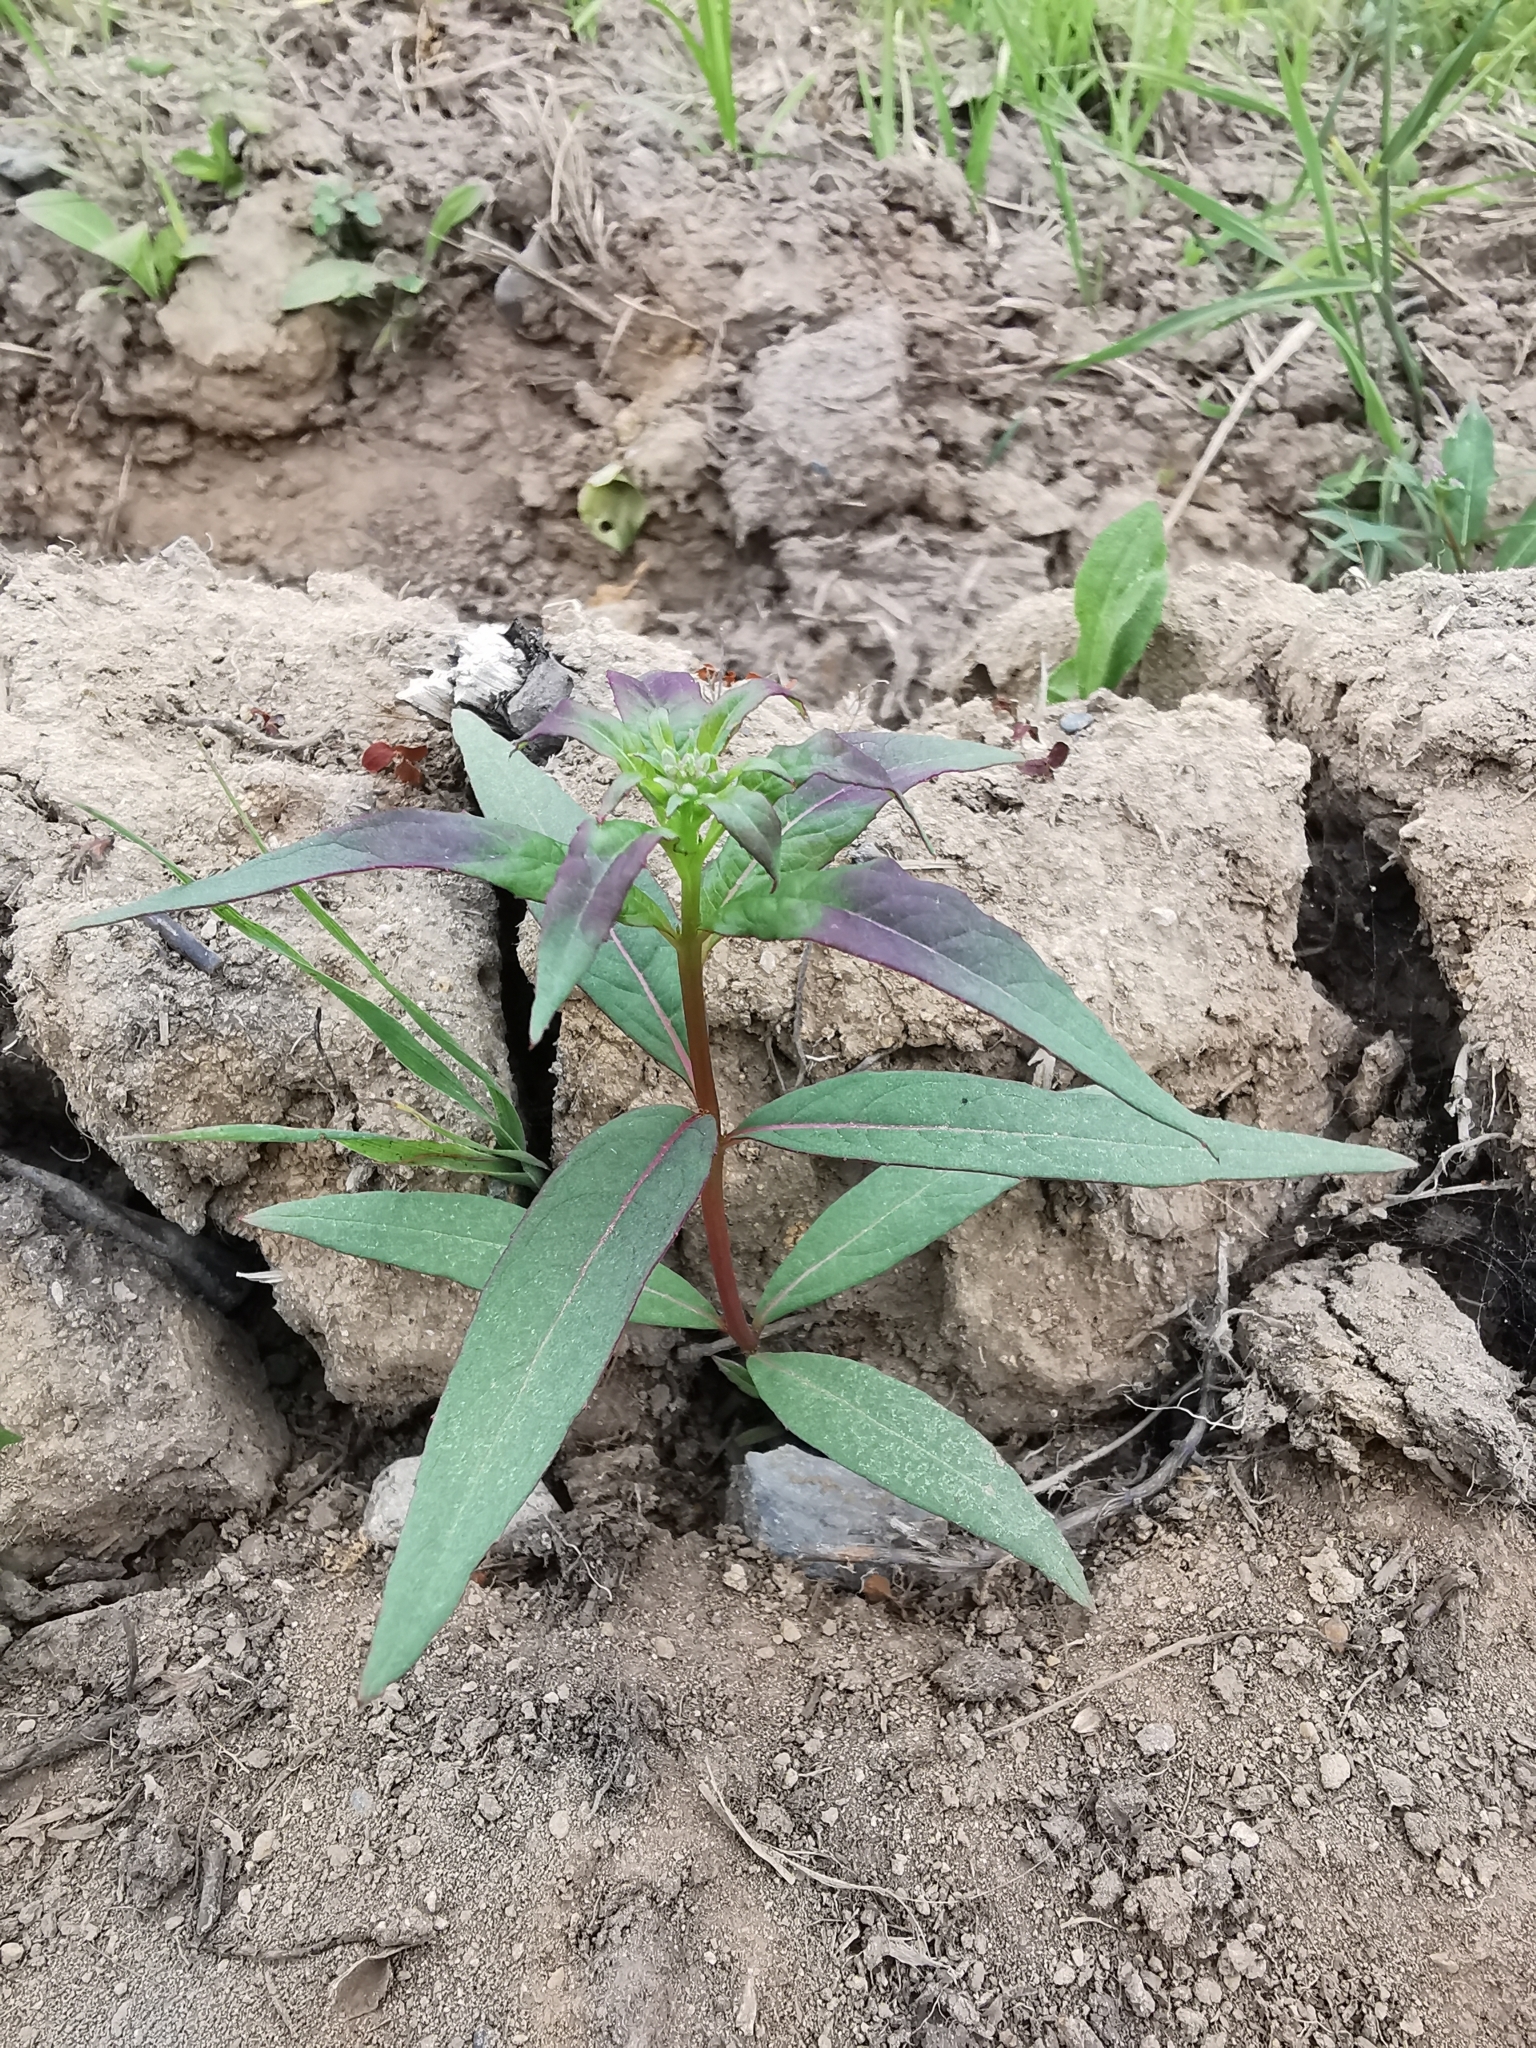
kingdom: Plantae
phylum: Tracheophyta
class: Magnoliopsida
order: Myrtales
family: Onagraceae
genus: Chamaenerion
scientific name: Chamaenerion angustifolium
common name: Fireweed
